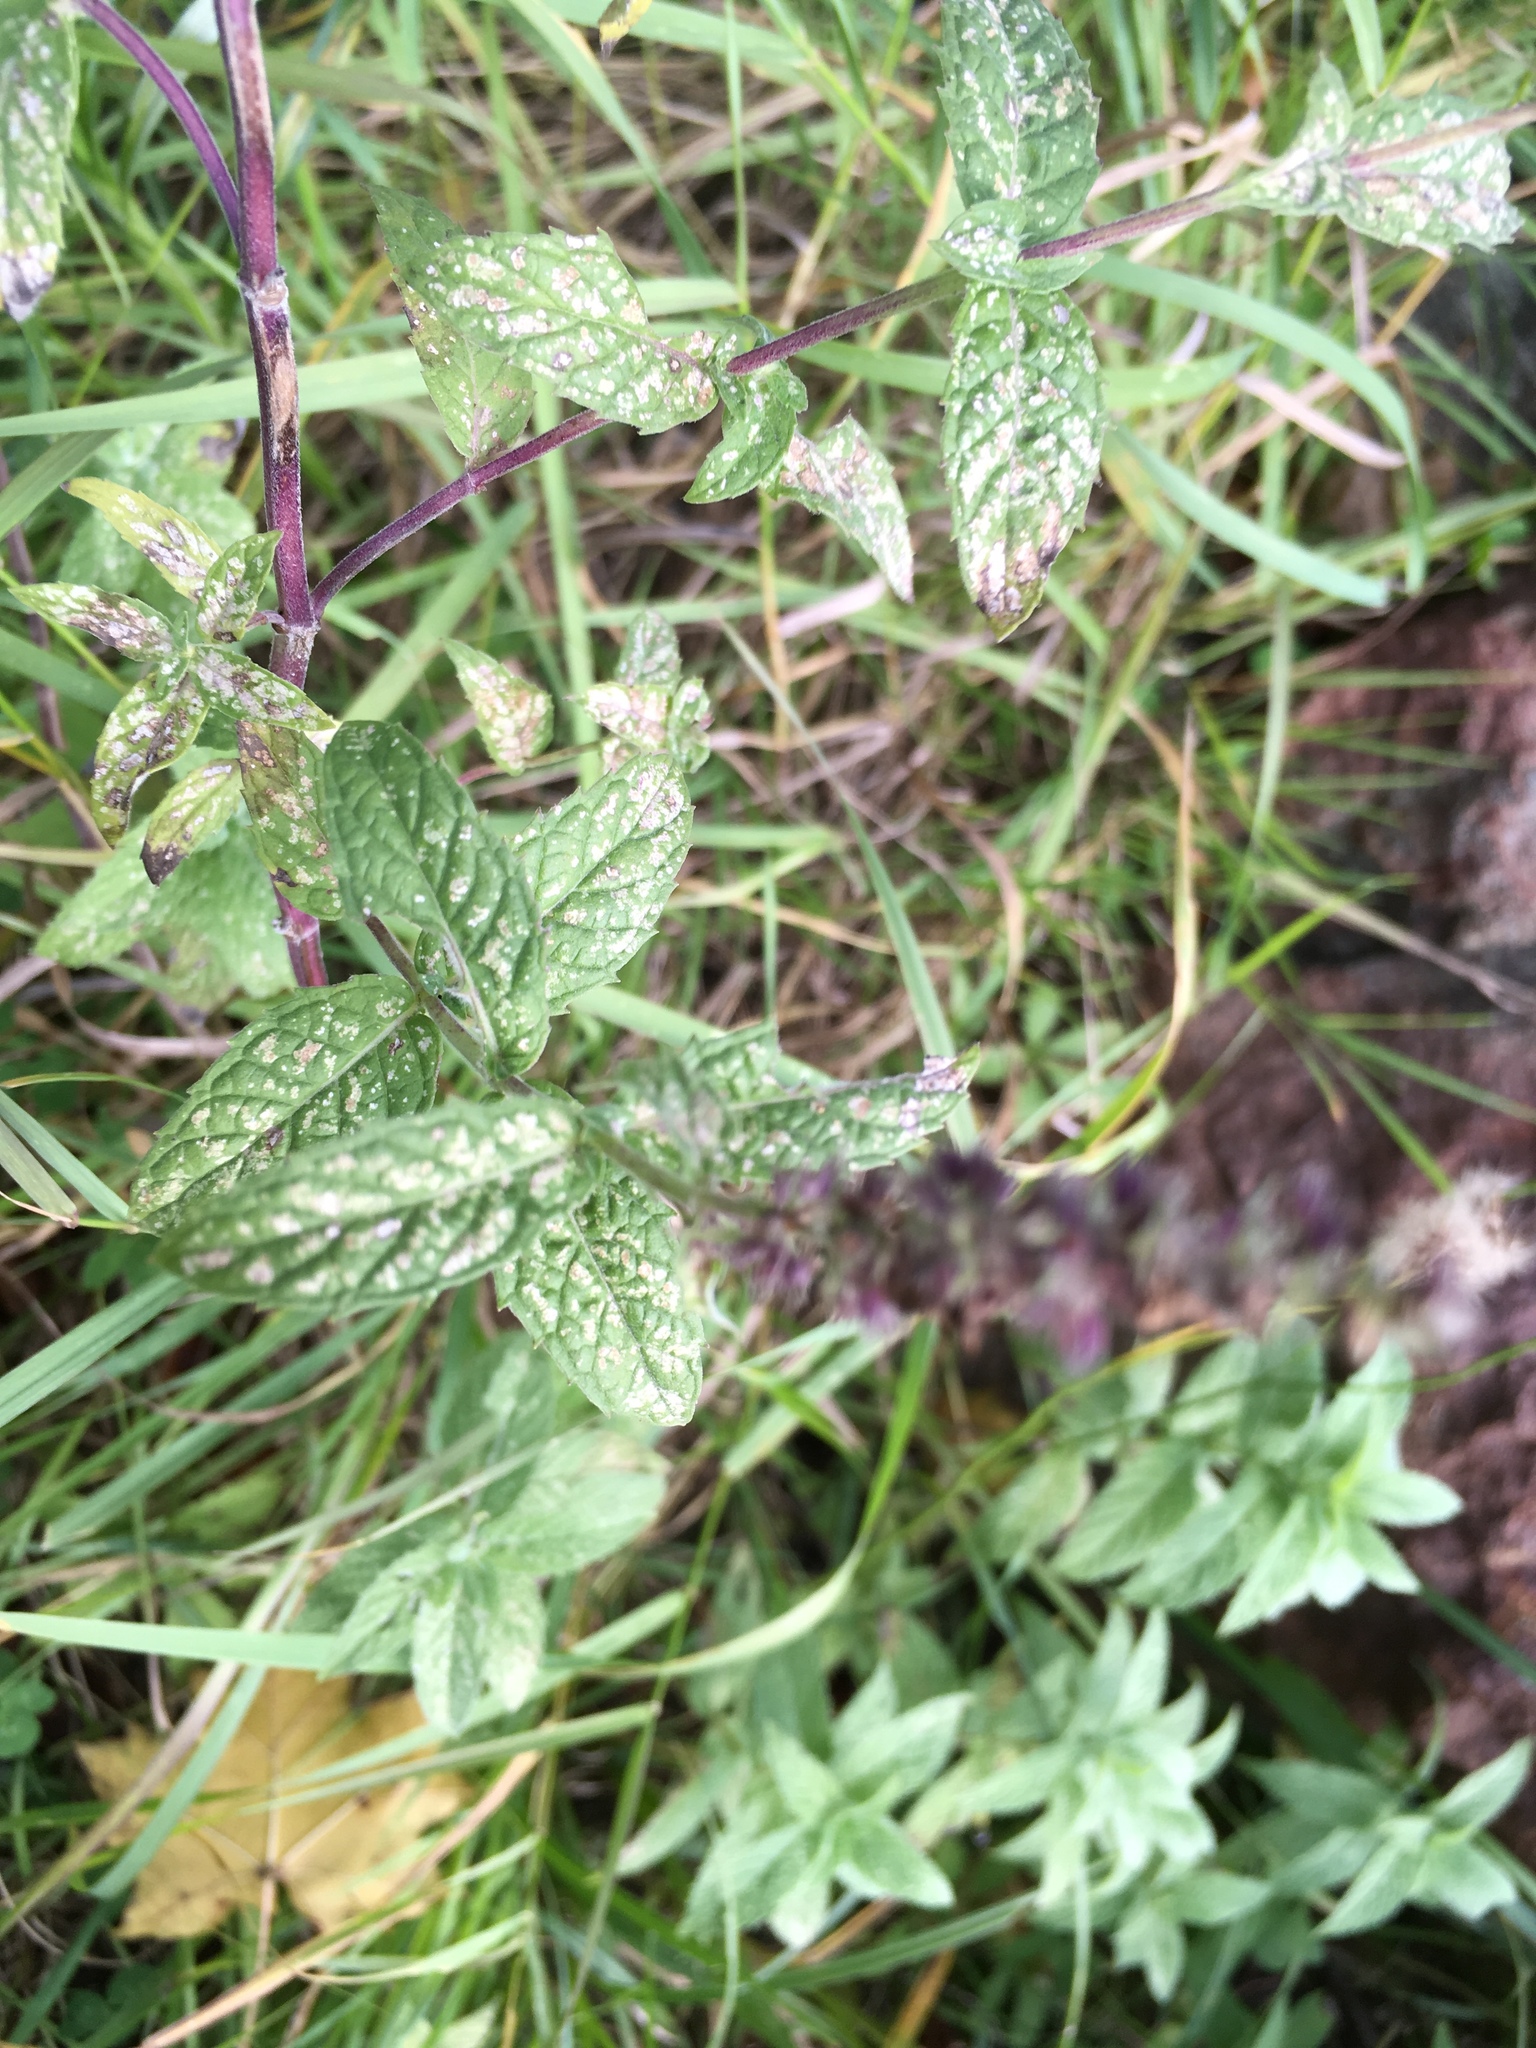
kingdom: Plantae
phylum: Tracheophyta
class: Magnoliopsida
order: Lamiales
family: Lamiaceae
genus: Mentha
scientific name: Mentha longifolia
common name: Horse mint
